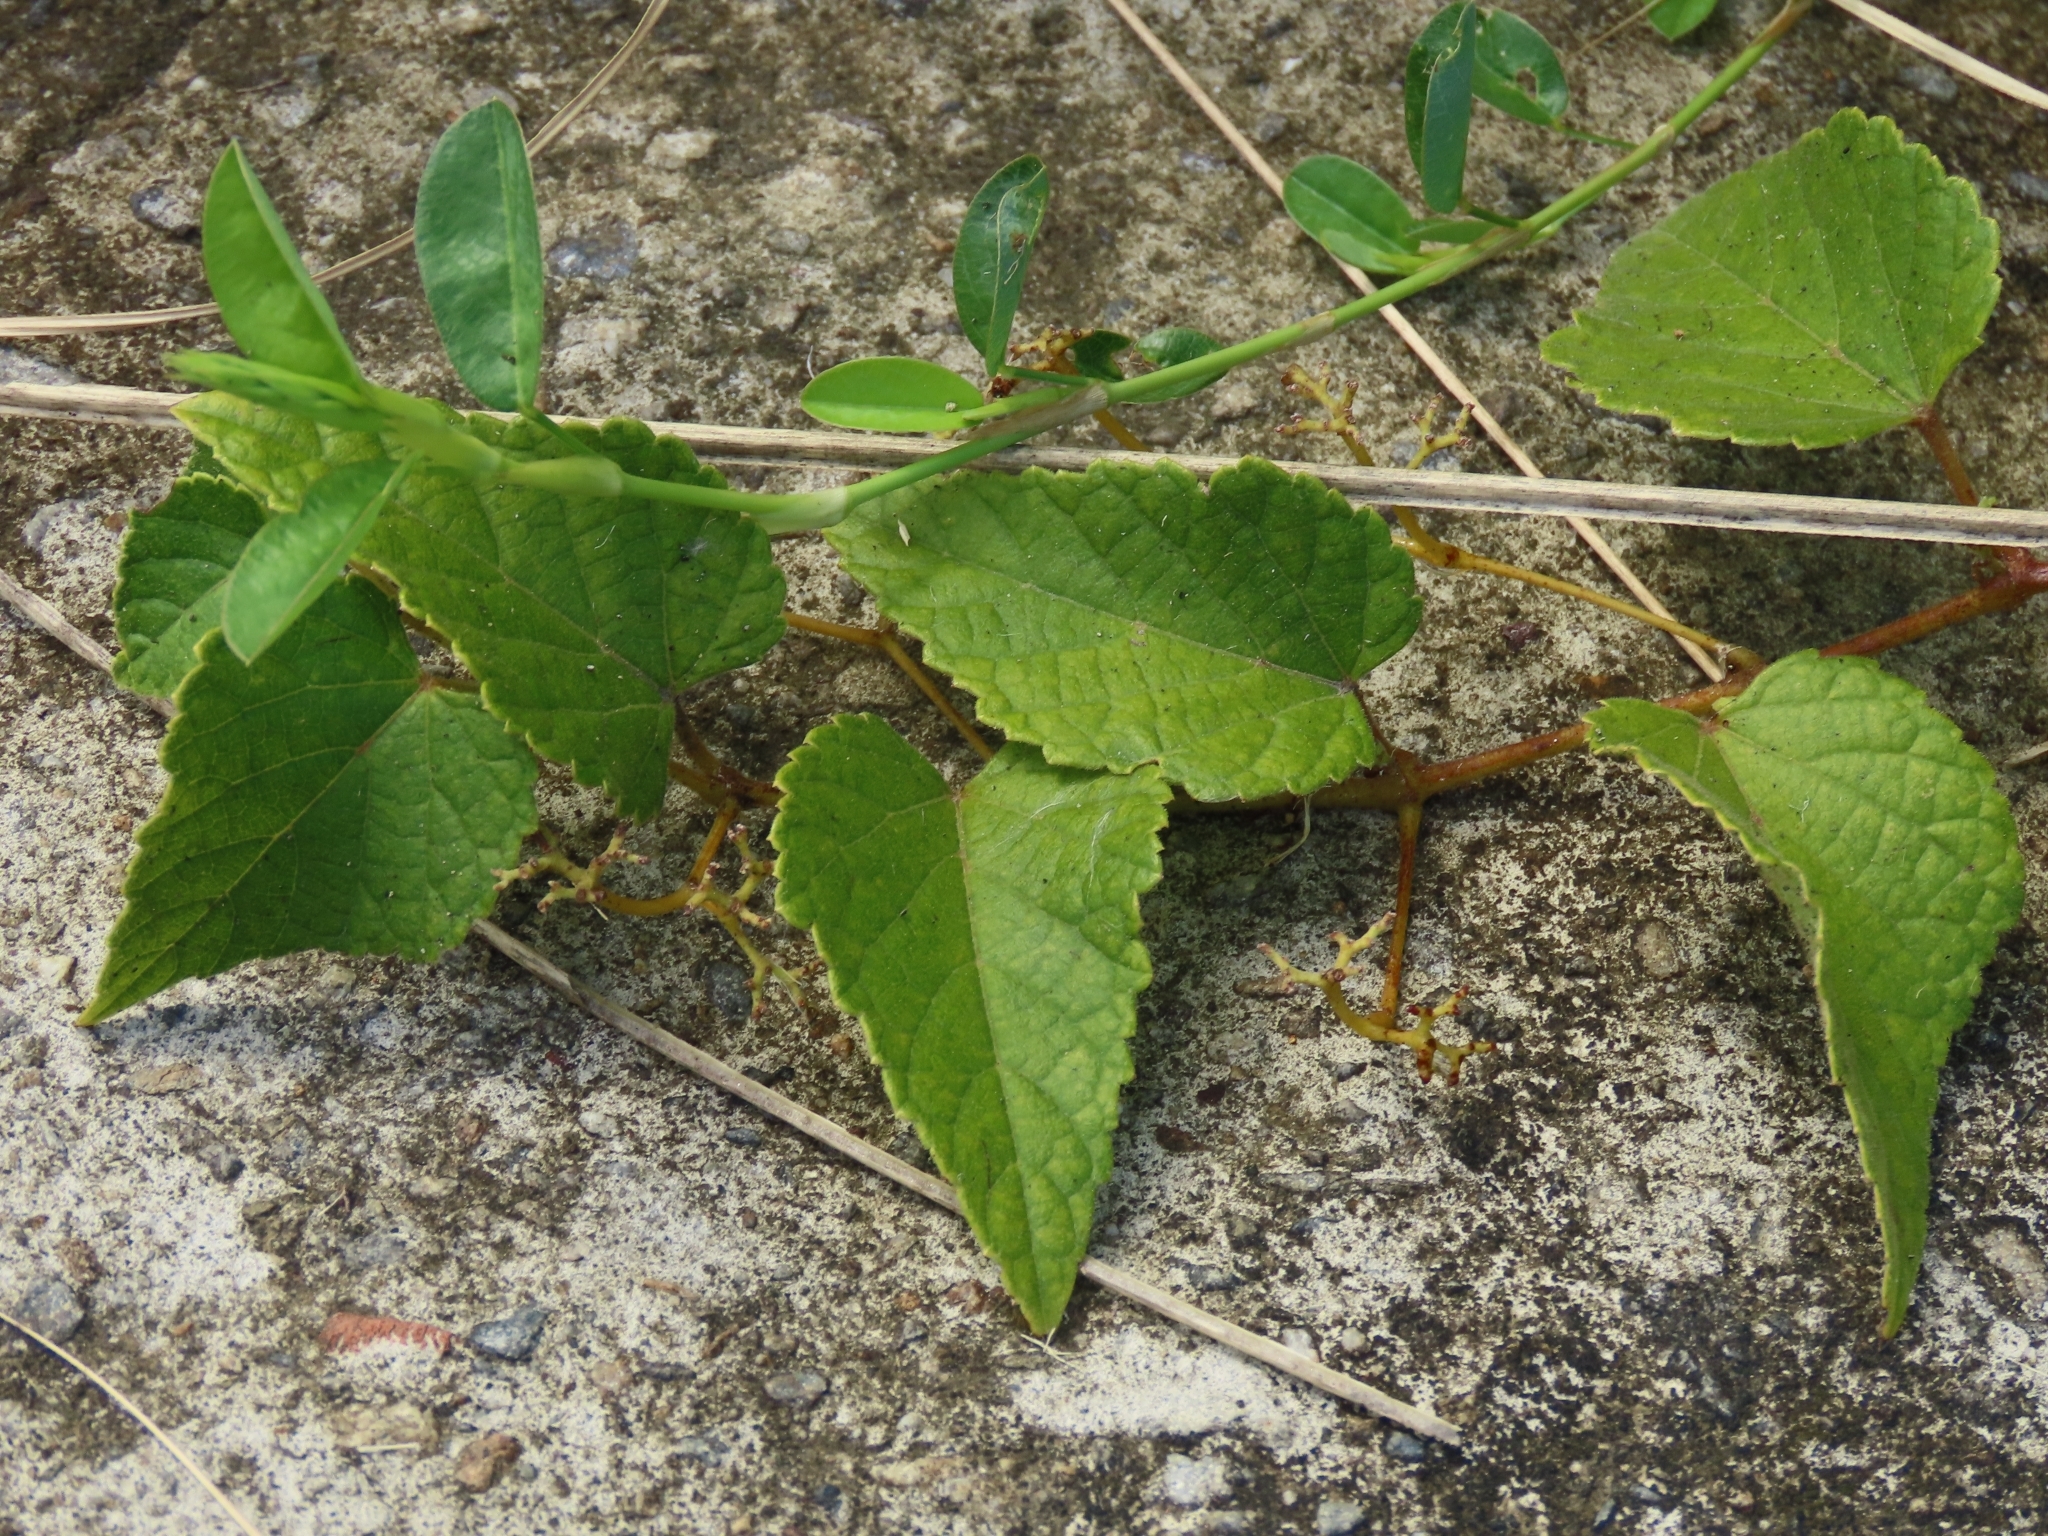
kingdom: Plantae
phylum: Tracheophyta
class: Magnoliopsida
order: Vitales
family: Vitaceae
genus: Ampelopsis
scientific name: Ampelopsis glandulosa
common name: Amur peppervine
